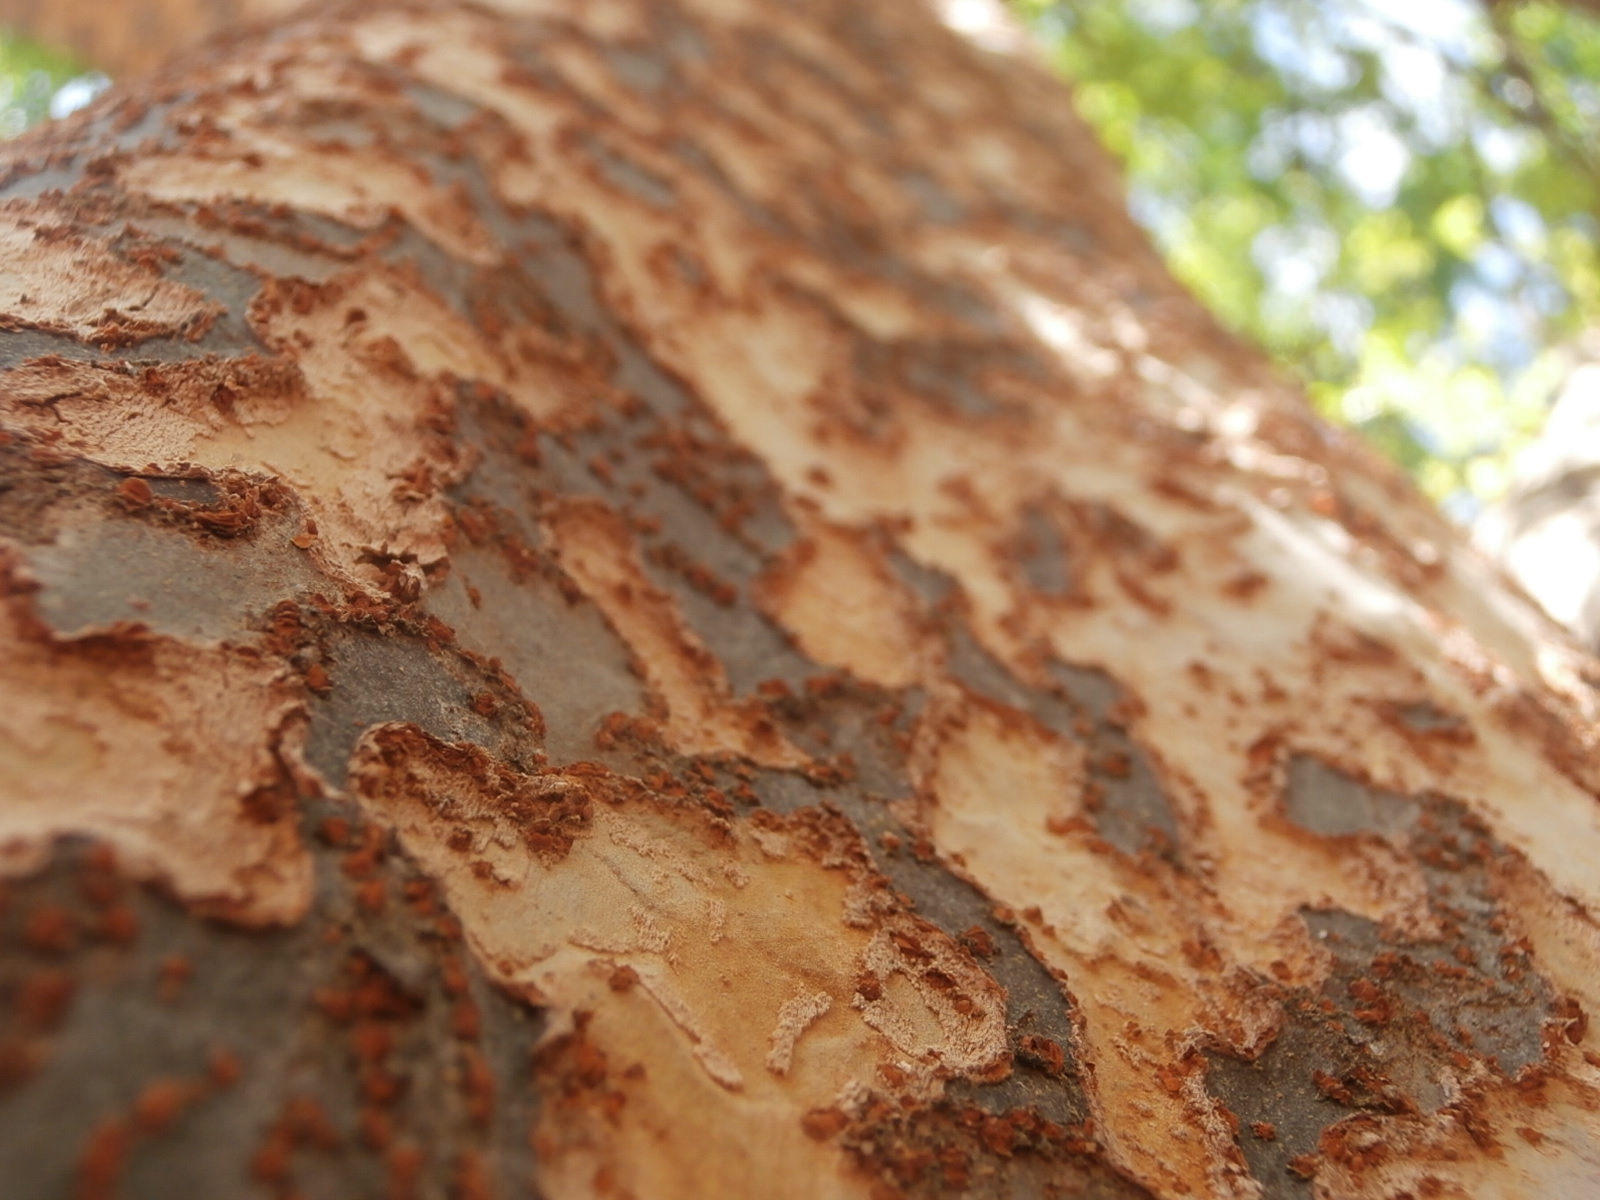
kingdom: Plantae
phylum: Tracheophyta
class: Magnoliopsida
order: Rosales
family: Ulmaceae
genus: Ulmus
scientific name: Ulmus parvifolia
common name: Chinese elm
